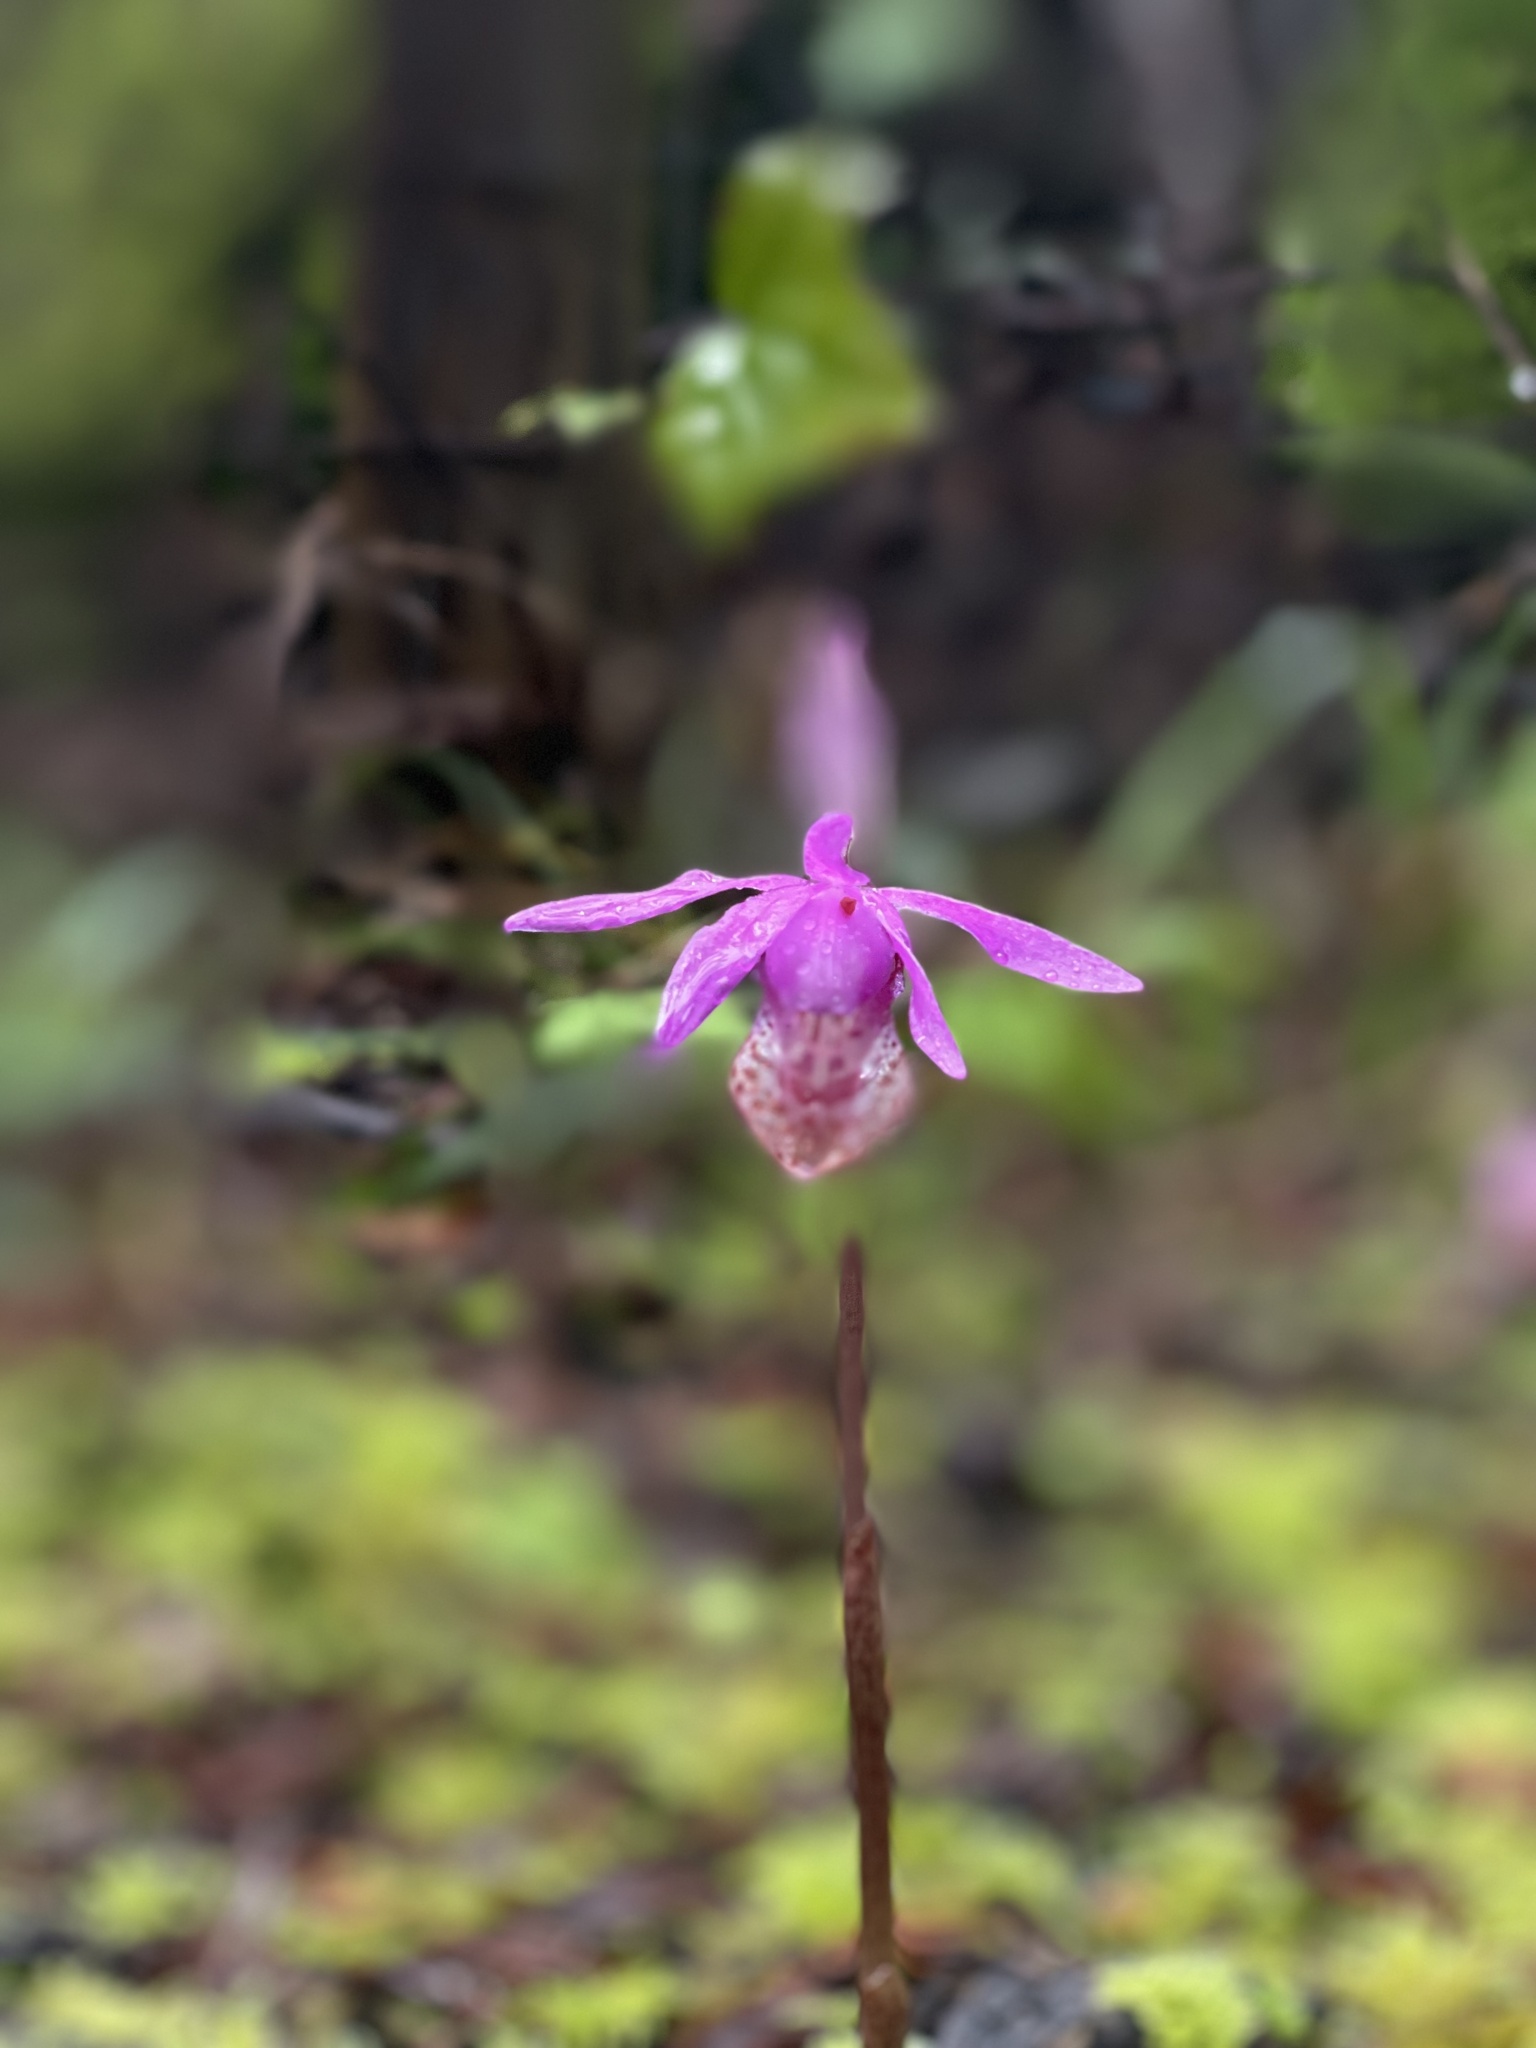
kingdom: Plantae
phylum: Tracheophyta
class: Liliopsida
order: Asparagales
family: Orchidaceae
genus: Calypso
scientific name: Calypso bulbosa
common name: Calypso
